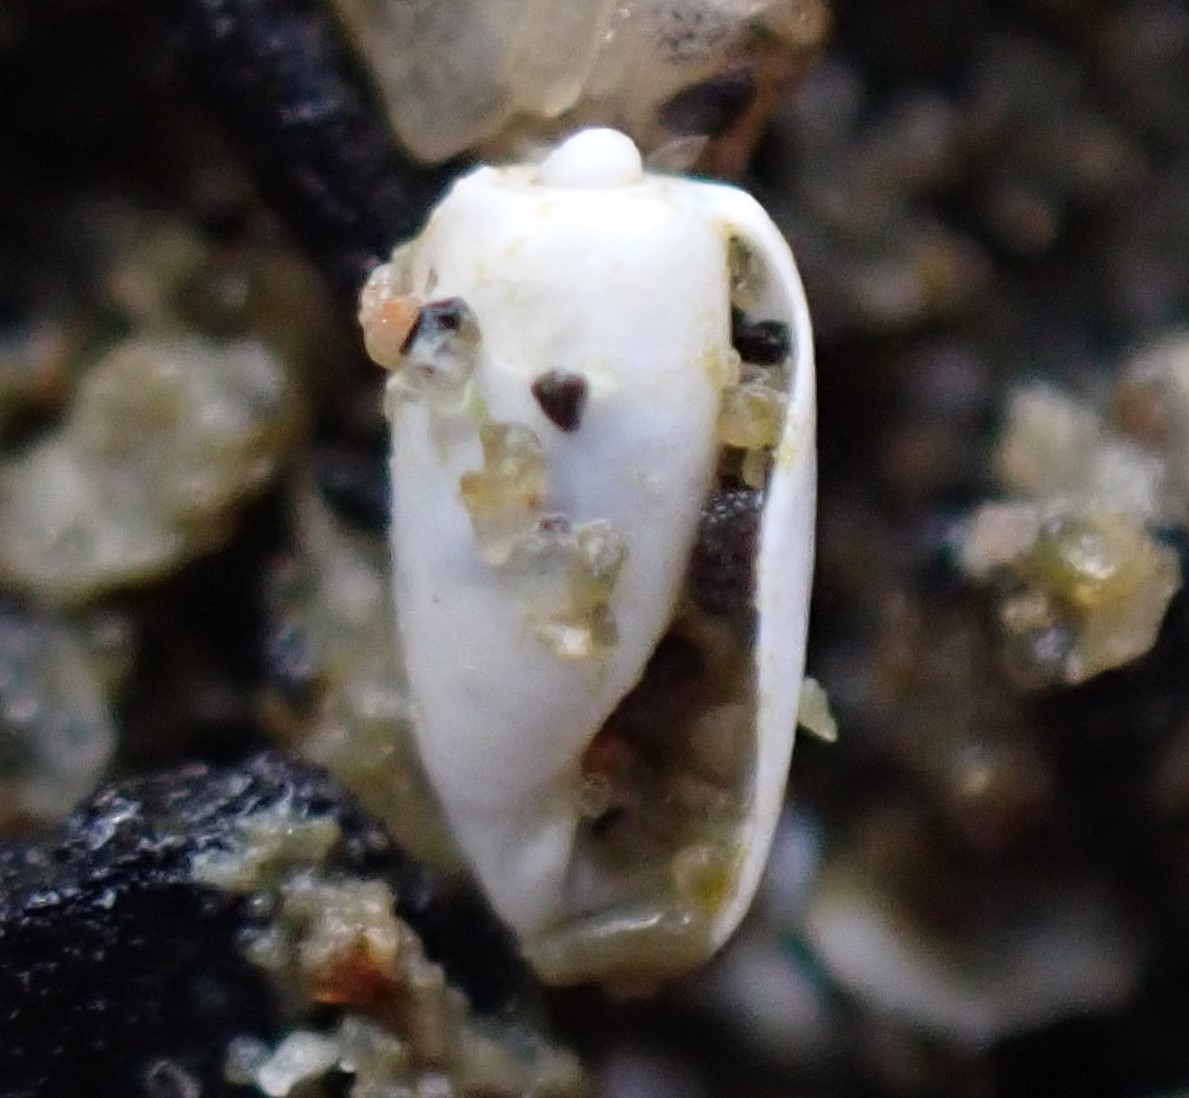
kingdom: Animalia
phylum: Mollusca
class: Gastropoda
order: Cephalaspidea
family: Retusidae
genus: Retusa
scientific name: Retusa oruaensis
